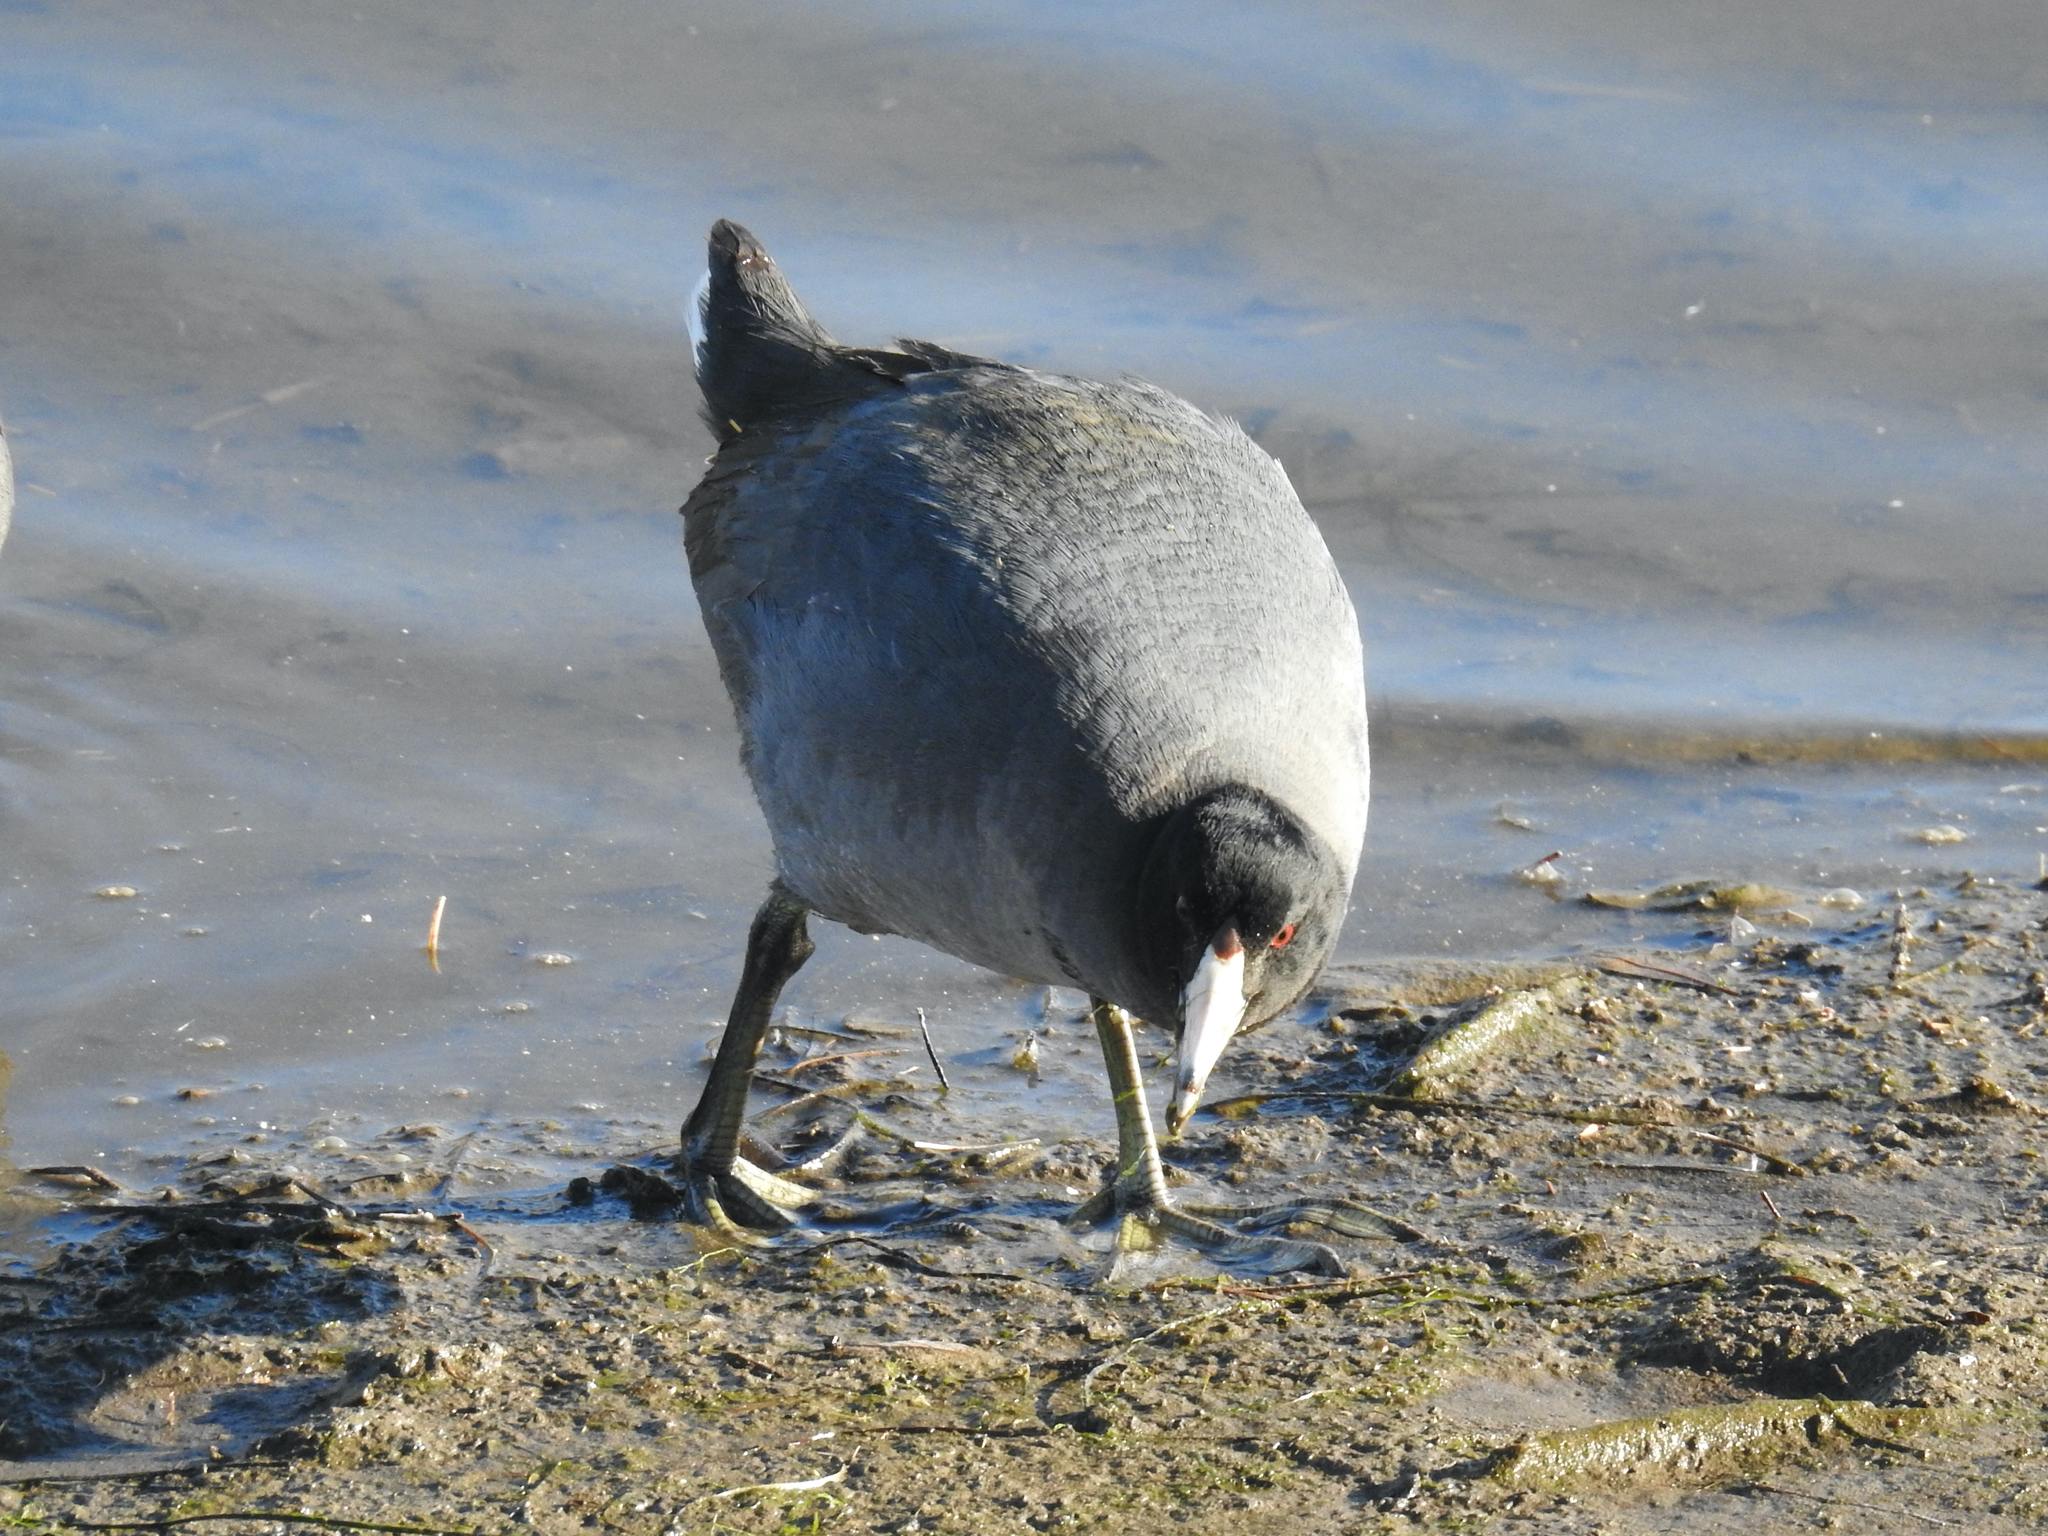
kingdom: Animalia
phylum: Chordata
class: Aves
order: Gruiformes
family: Rallidae
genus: Fulica
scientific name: Fulica americana
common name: American coot
